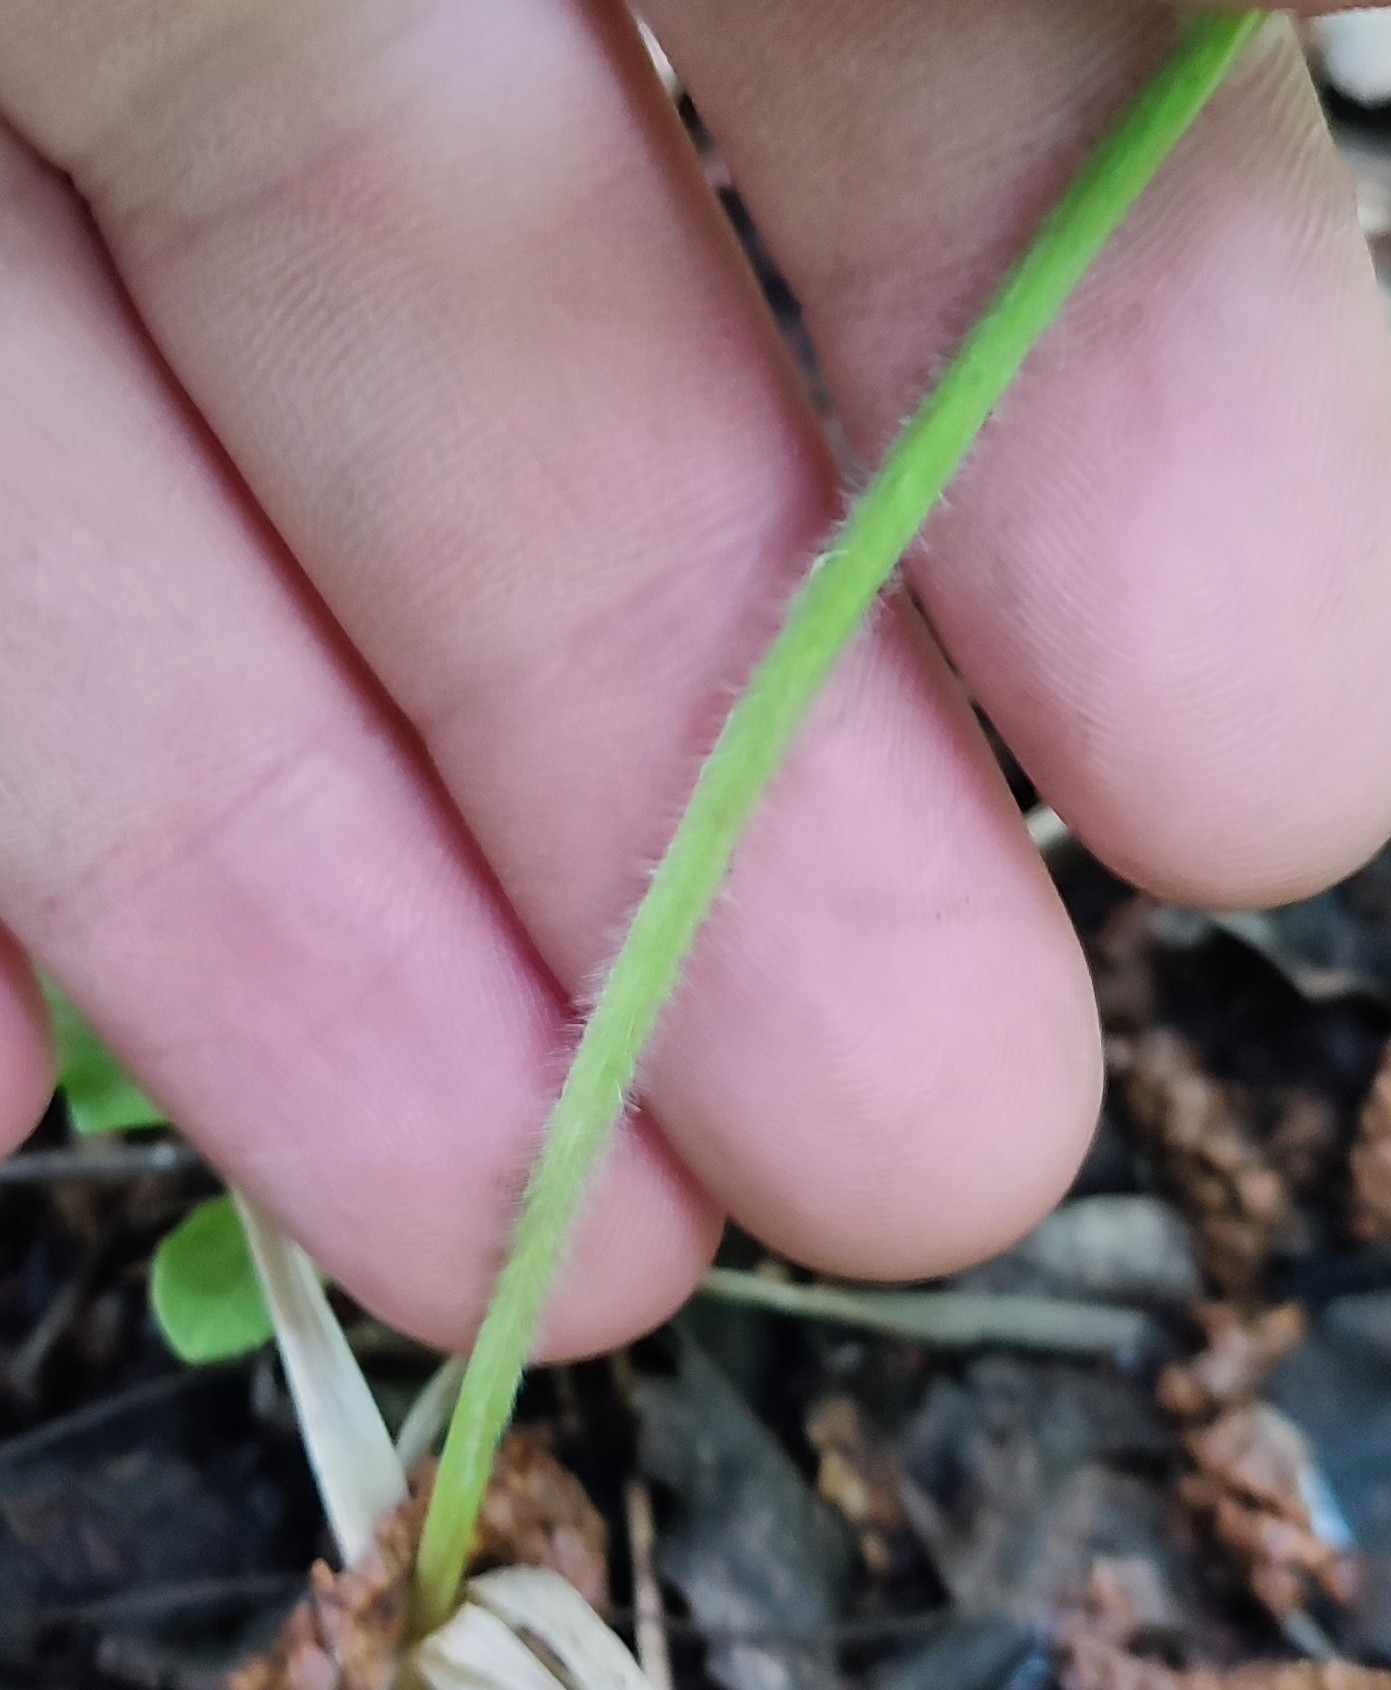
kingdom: Plantae
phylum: Tracheophyta
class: Liliopsida
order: Poales
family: Poaceae
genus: Elymus
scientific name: Elymus repens
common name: Quackgrass
